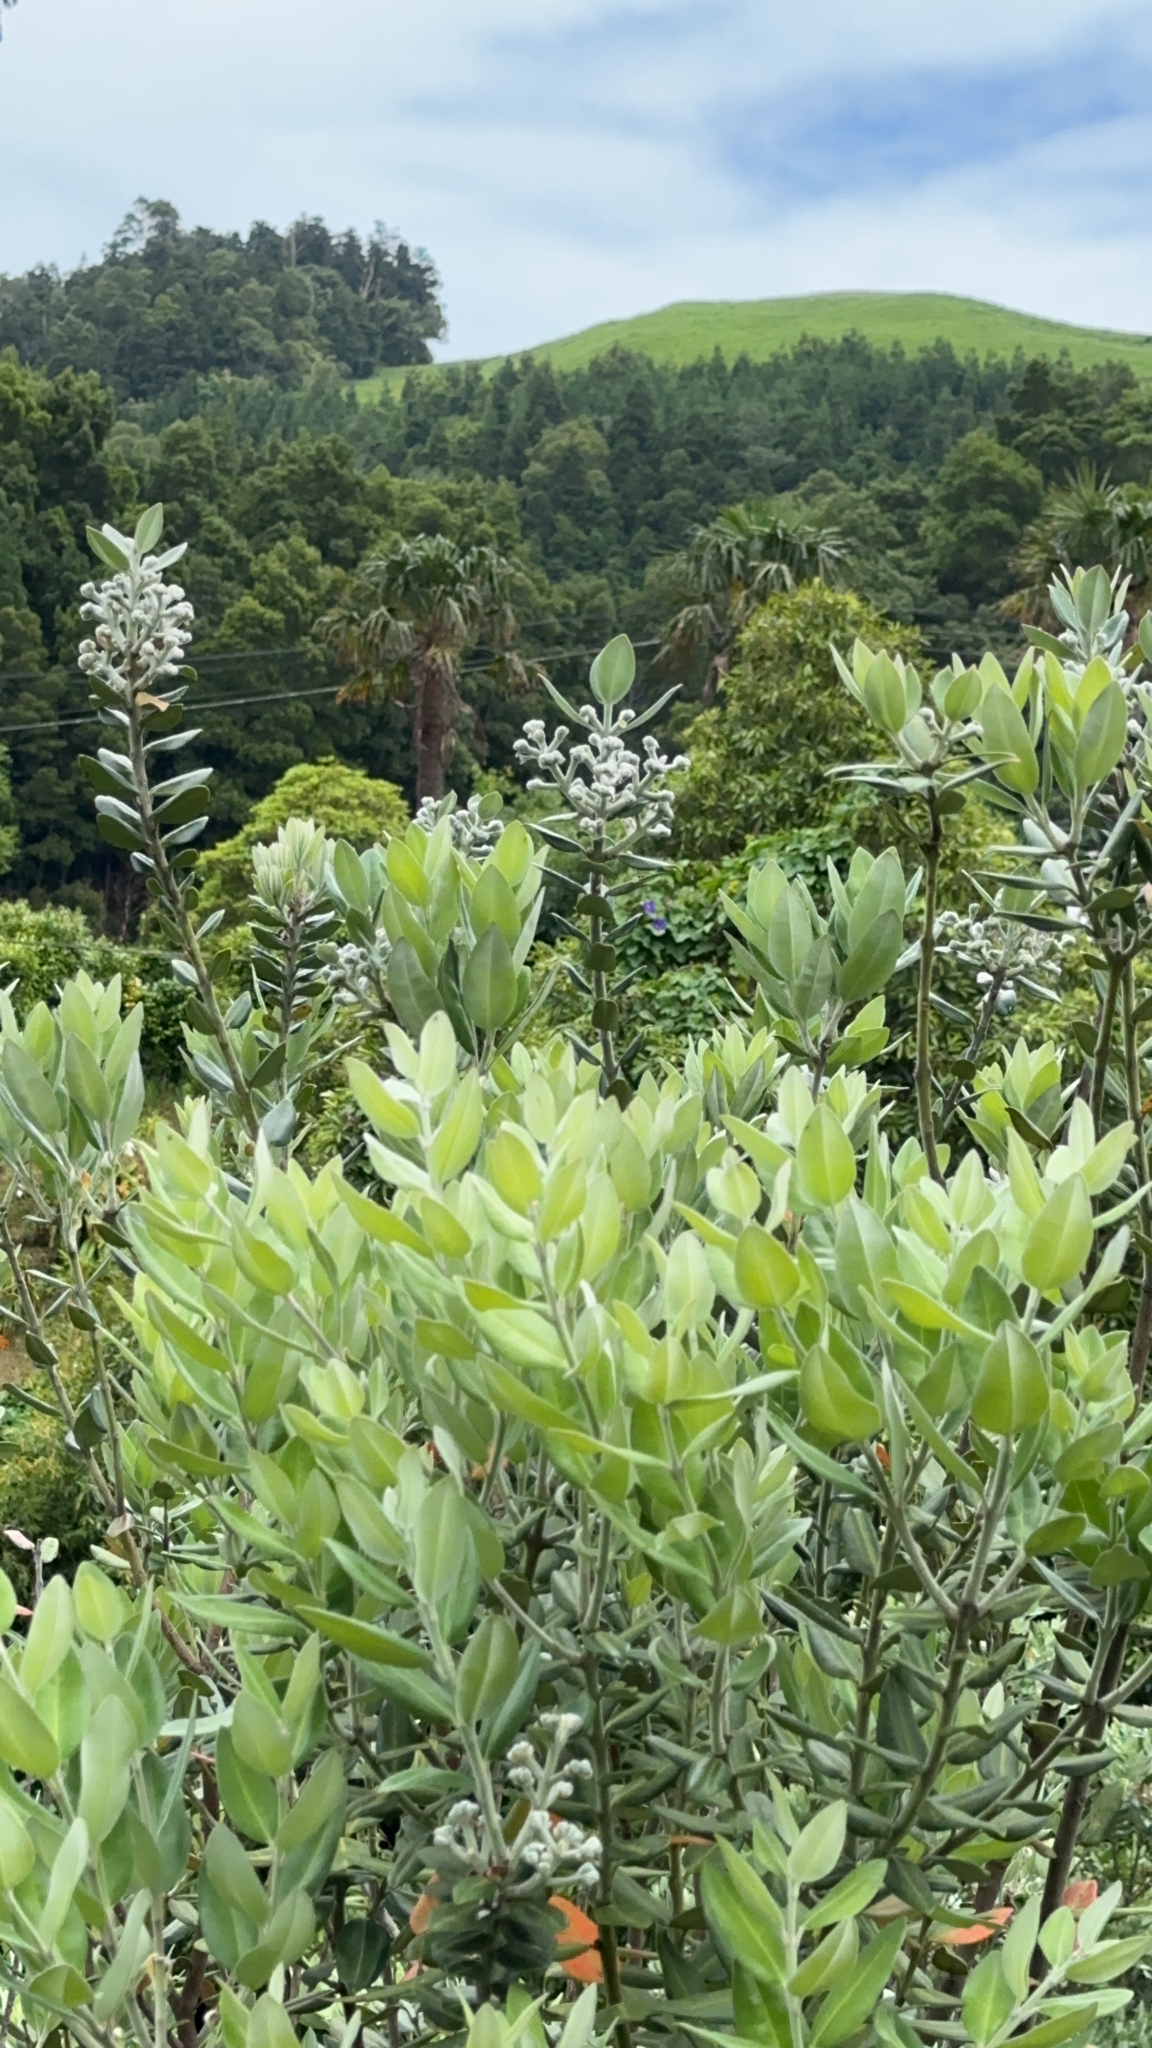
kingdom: Plantae
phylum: Tracheophyta
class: Magnoliopsida
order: Myrtales
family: Myrtaceae
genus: Metrosideros
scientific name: Metrosideros excelsa
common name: New zealand christmastree
